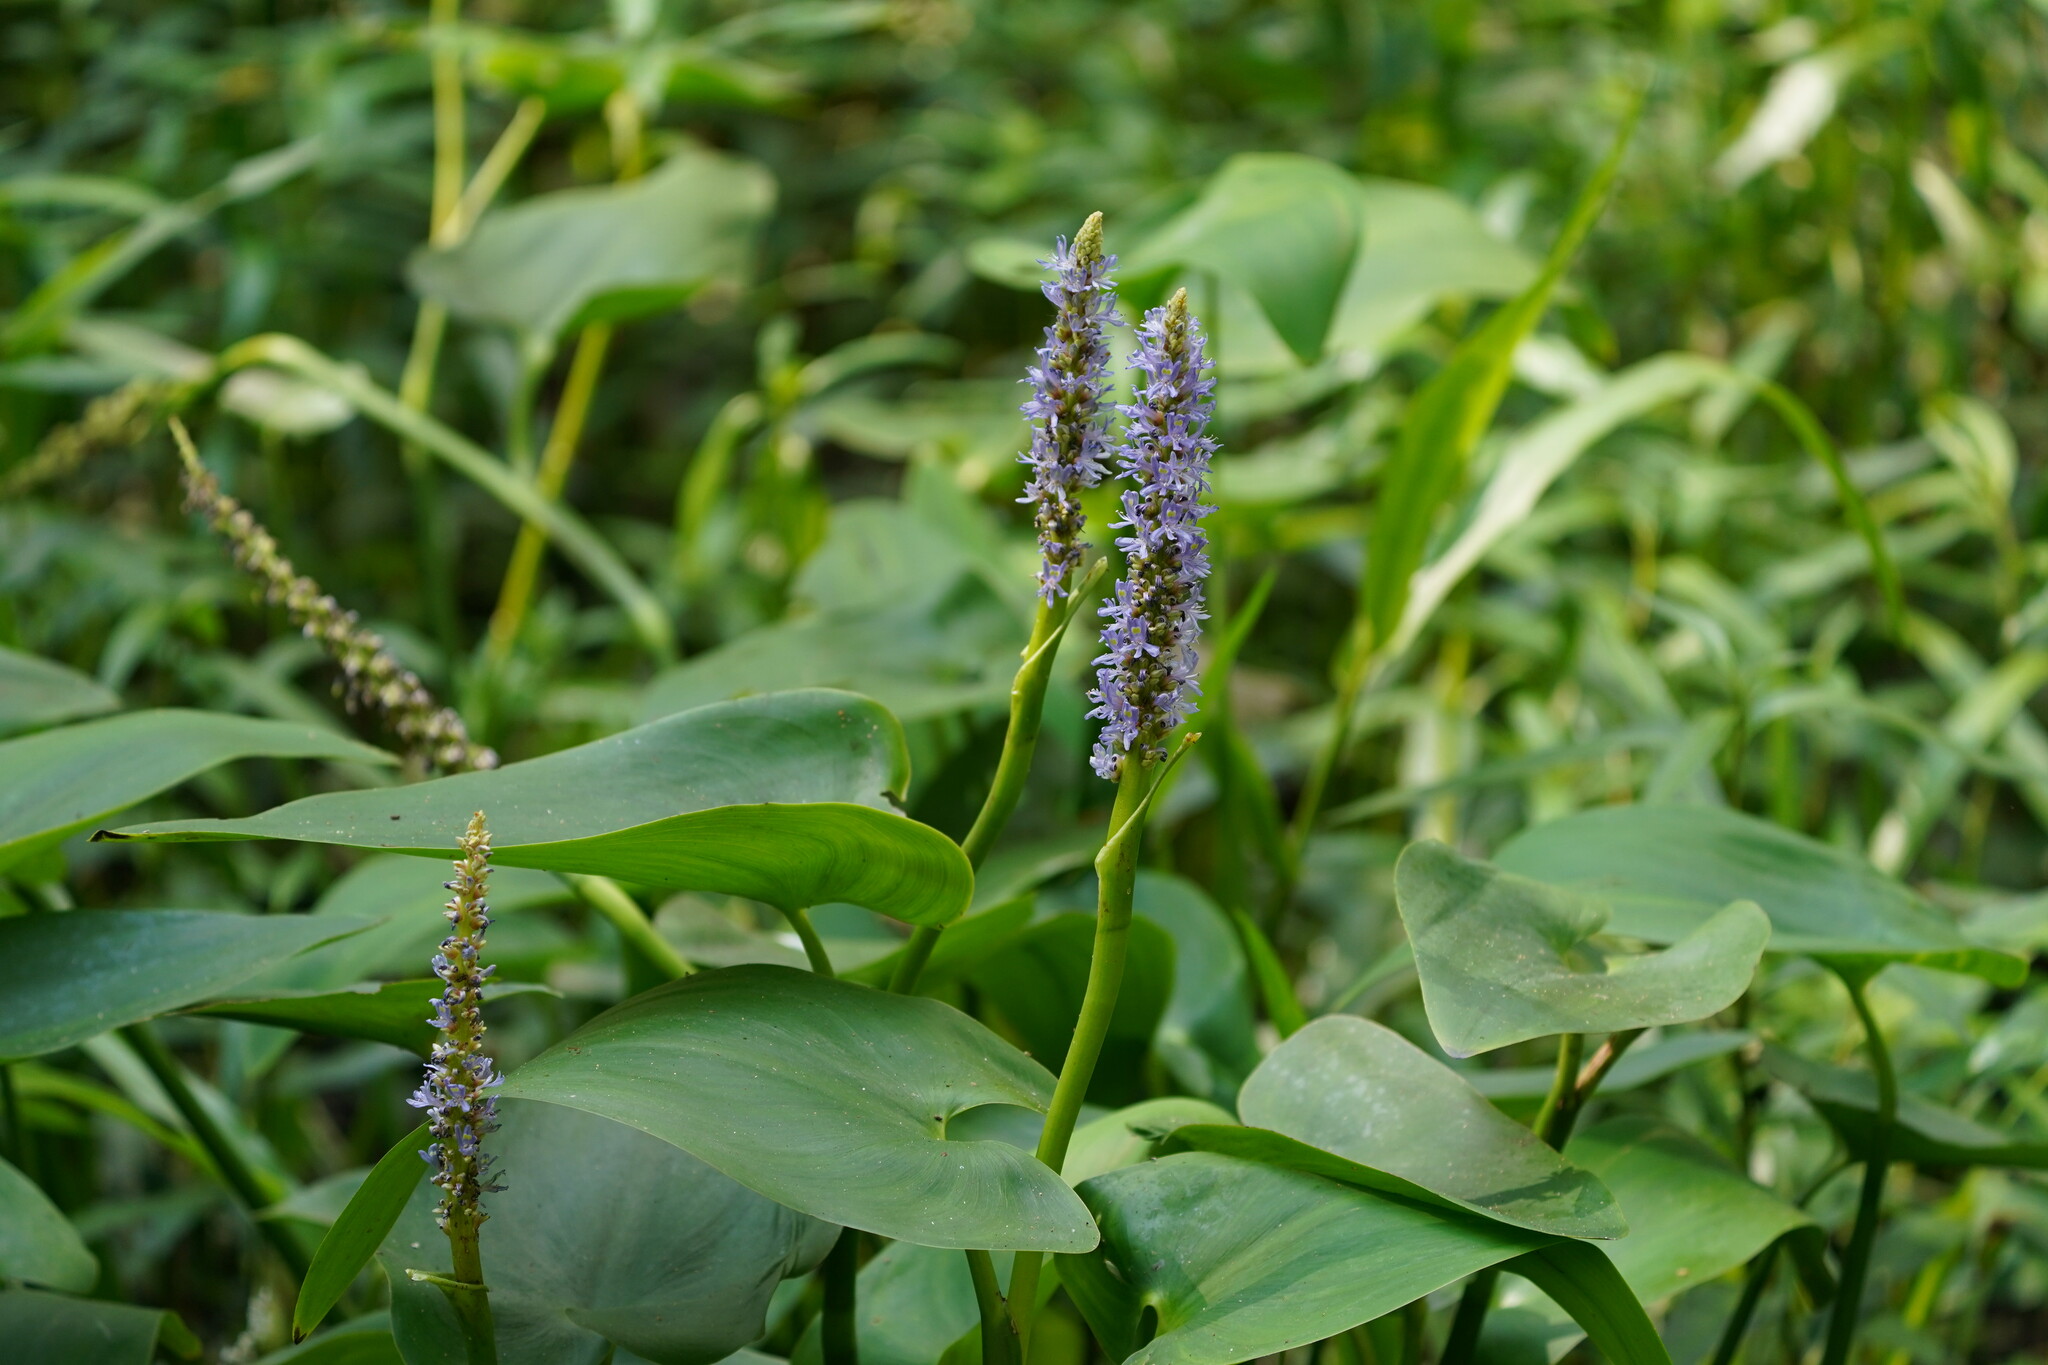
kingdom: Plantae
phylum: Tracheophyta
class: Liliopsida
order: Commelinales
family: Pontederiaceae
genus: Pontederia
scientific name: Pontederia cordata
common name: Pickerelweed
